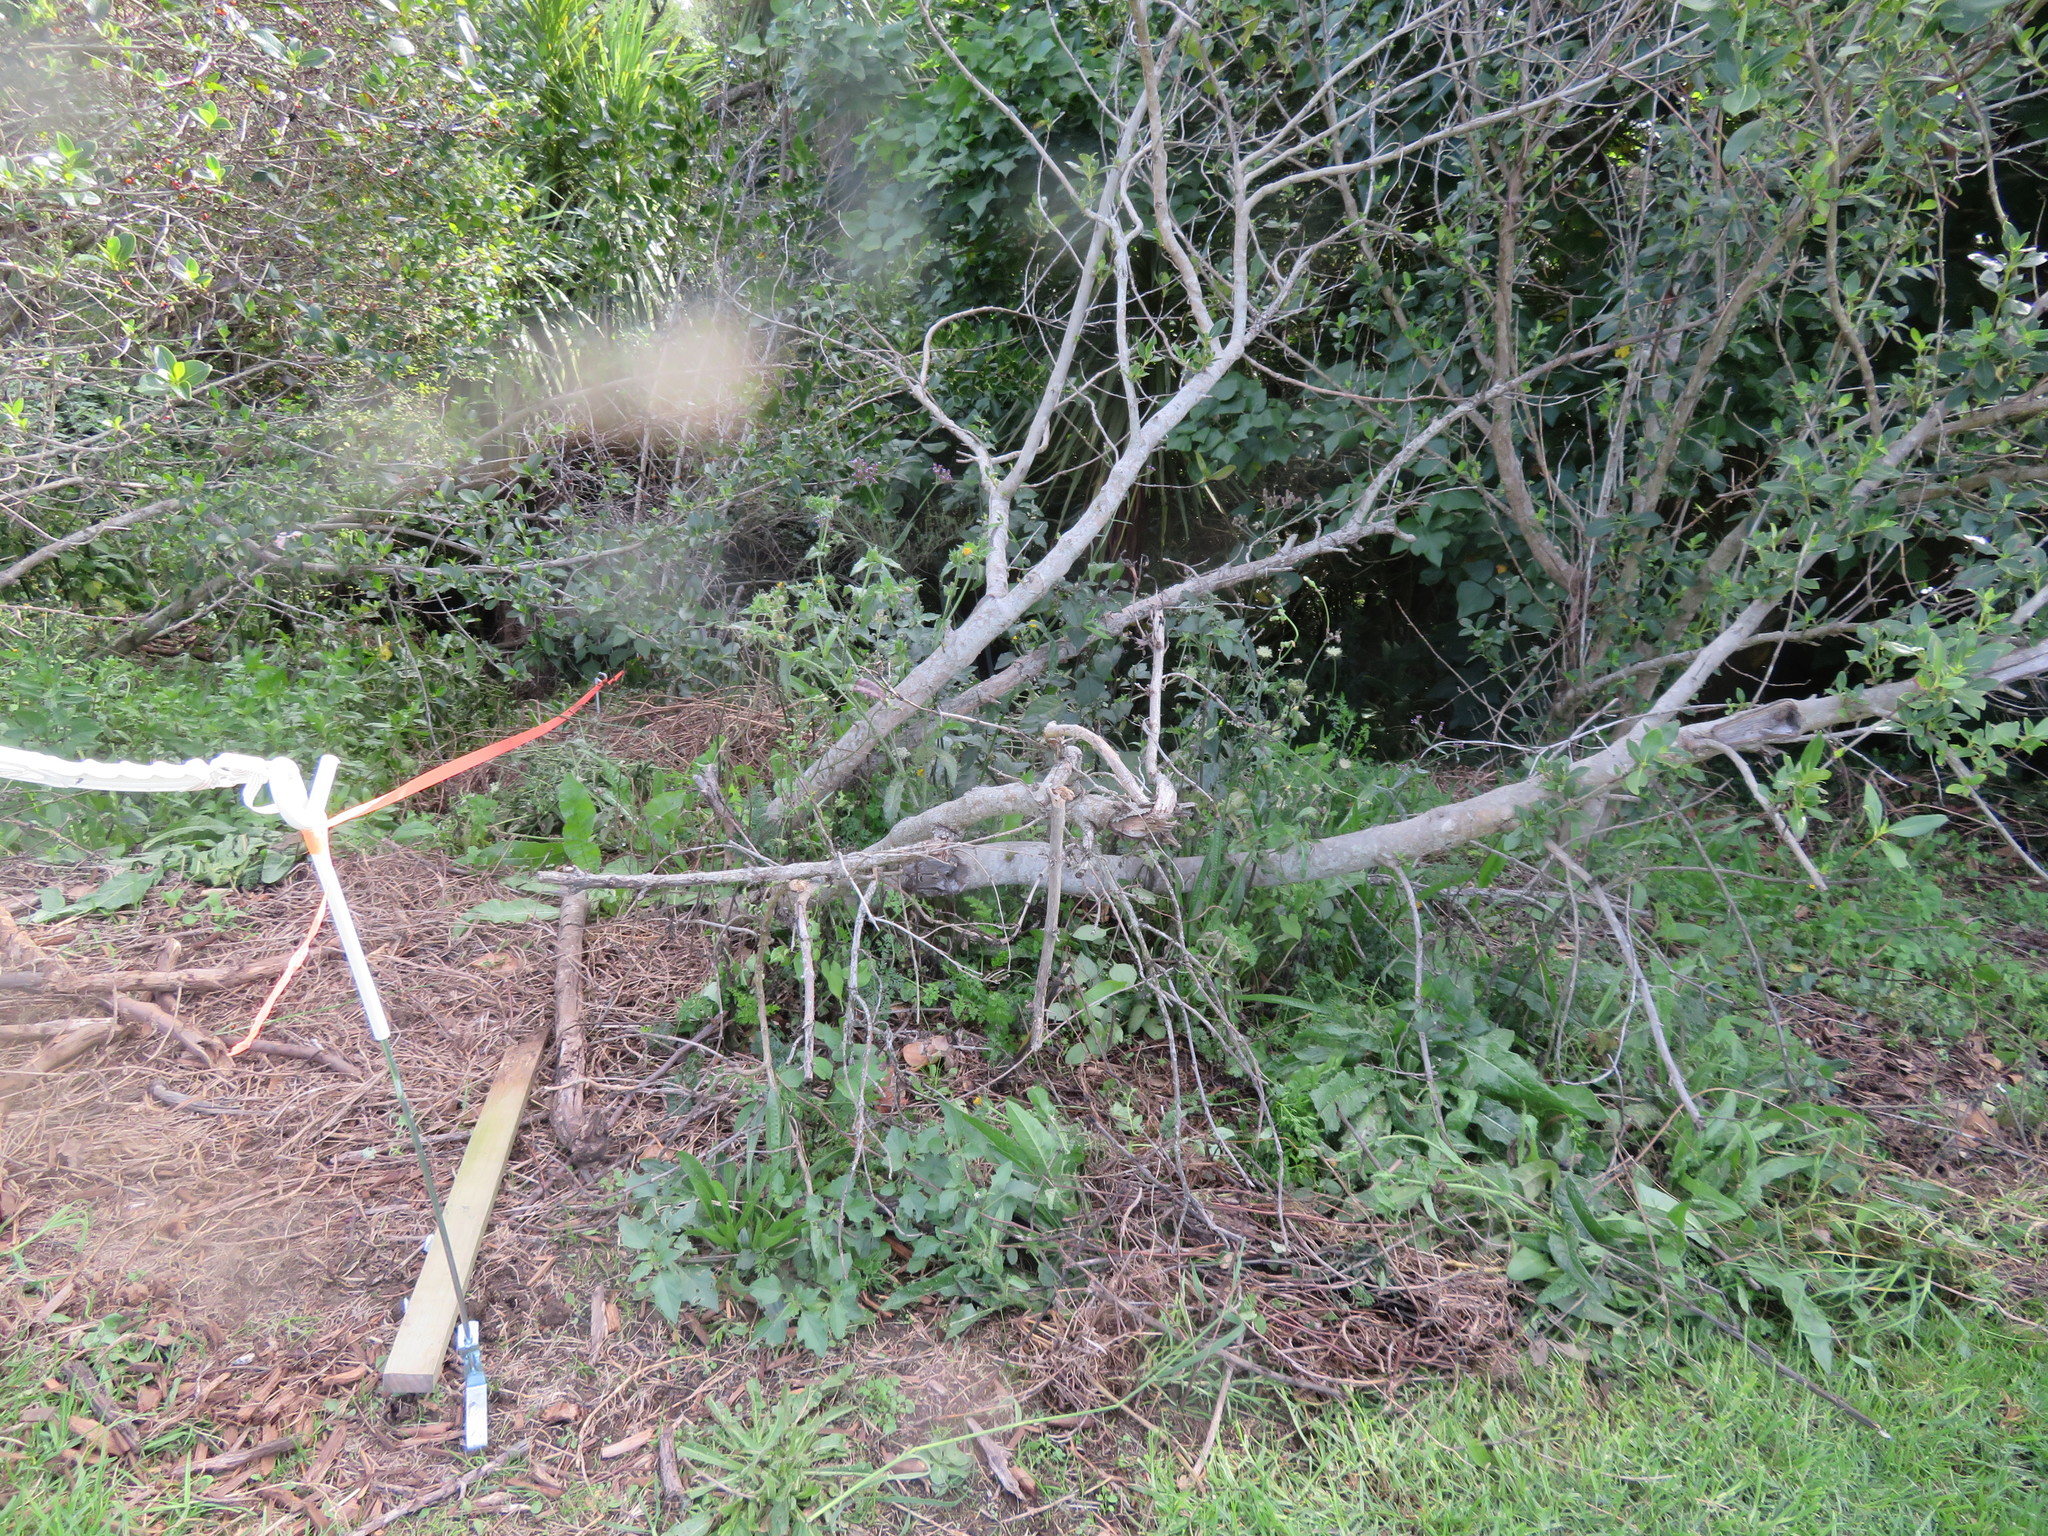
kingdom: Plantae
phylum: Tracheophyta
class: Liliopsida
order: Poales
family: Poaceae
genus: Cenchrus
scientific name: Cenchrus clandestinus
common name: Kikuyugrass
